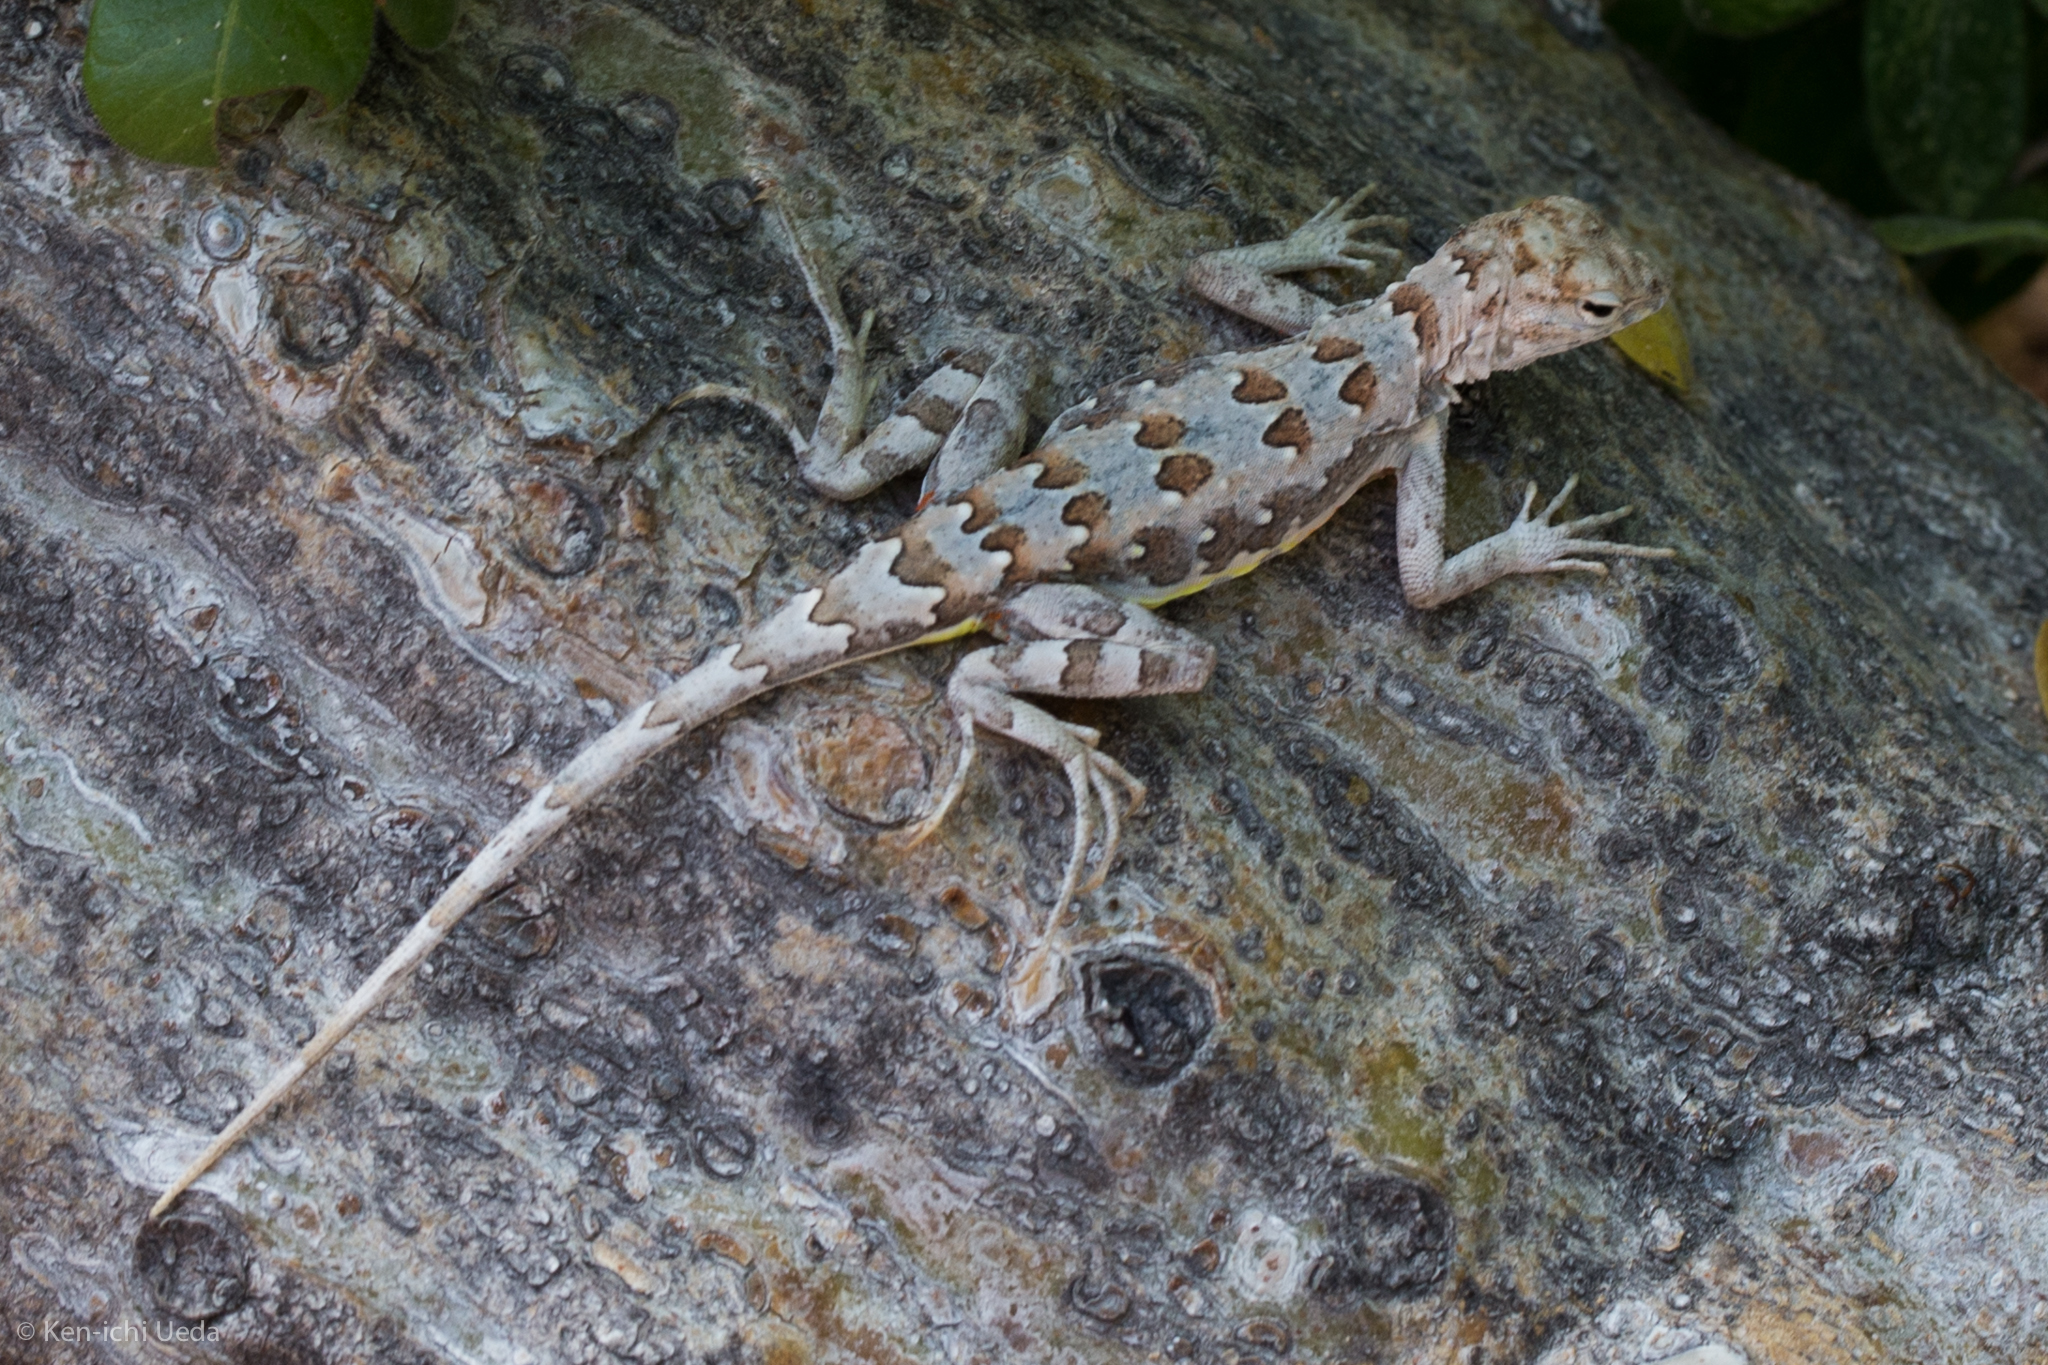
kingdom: Animalia
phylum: Chordata
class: Squamata
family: Phrynosomatidae
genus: Callisaurus
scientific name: Callisaurus draconoides
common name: Zebra-tailed lizard
